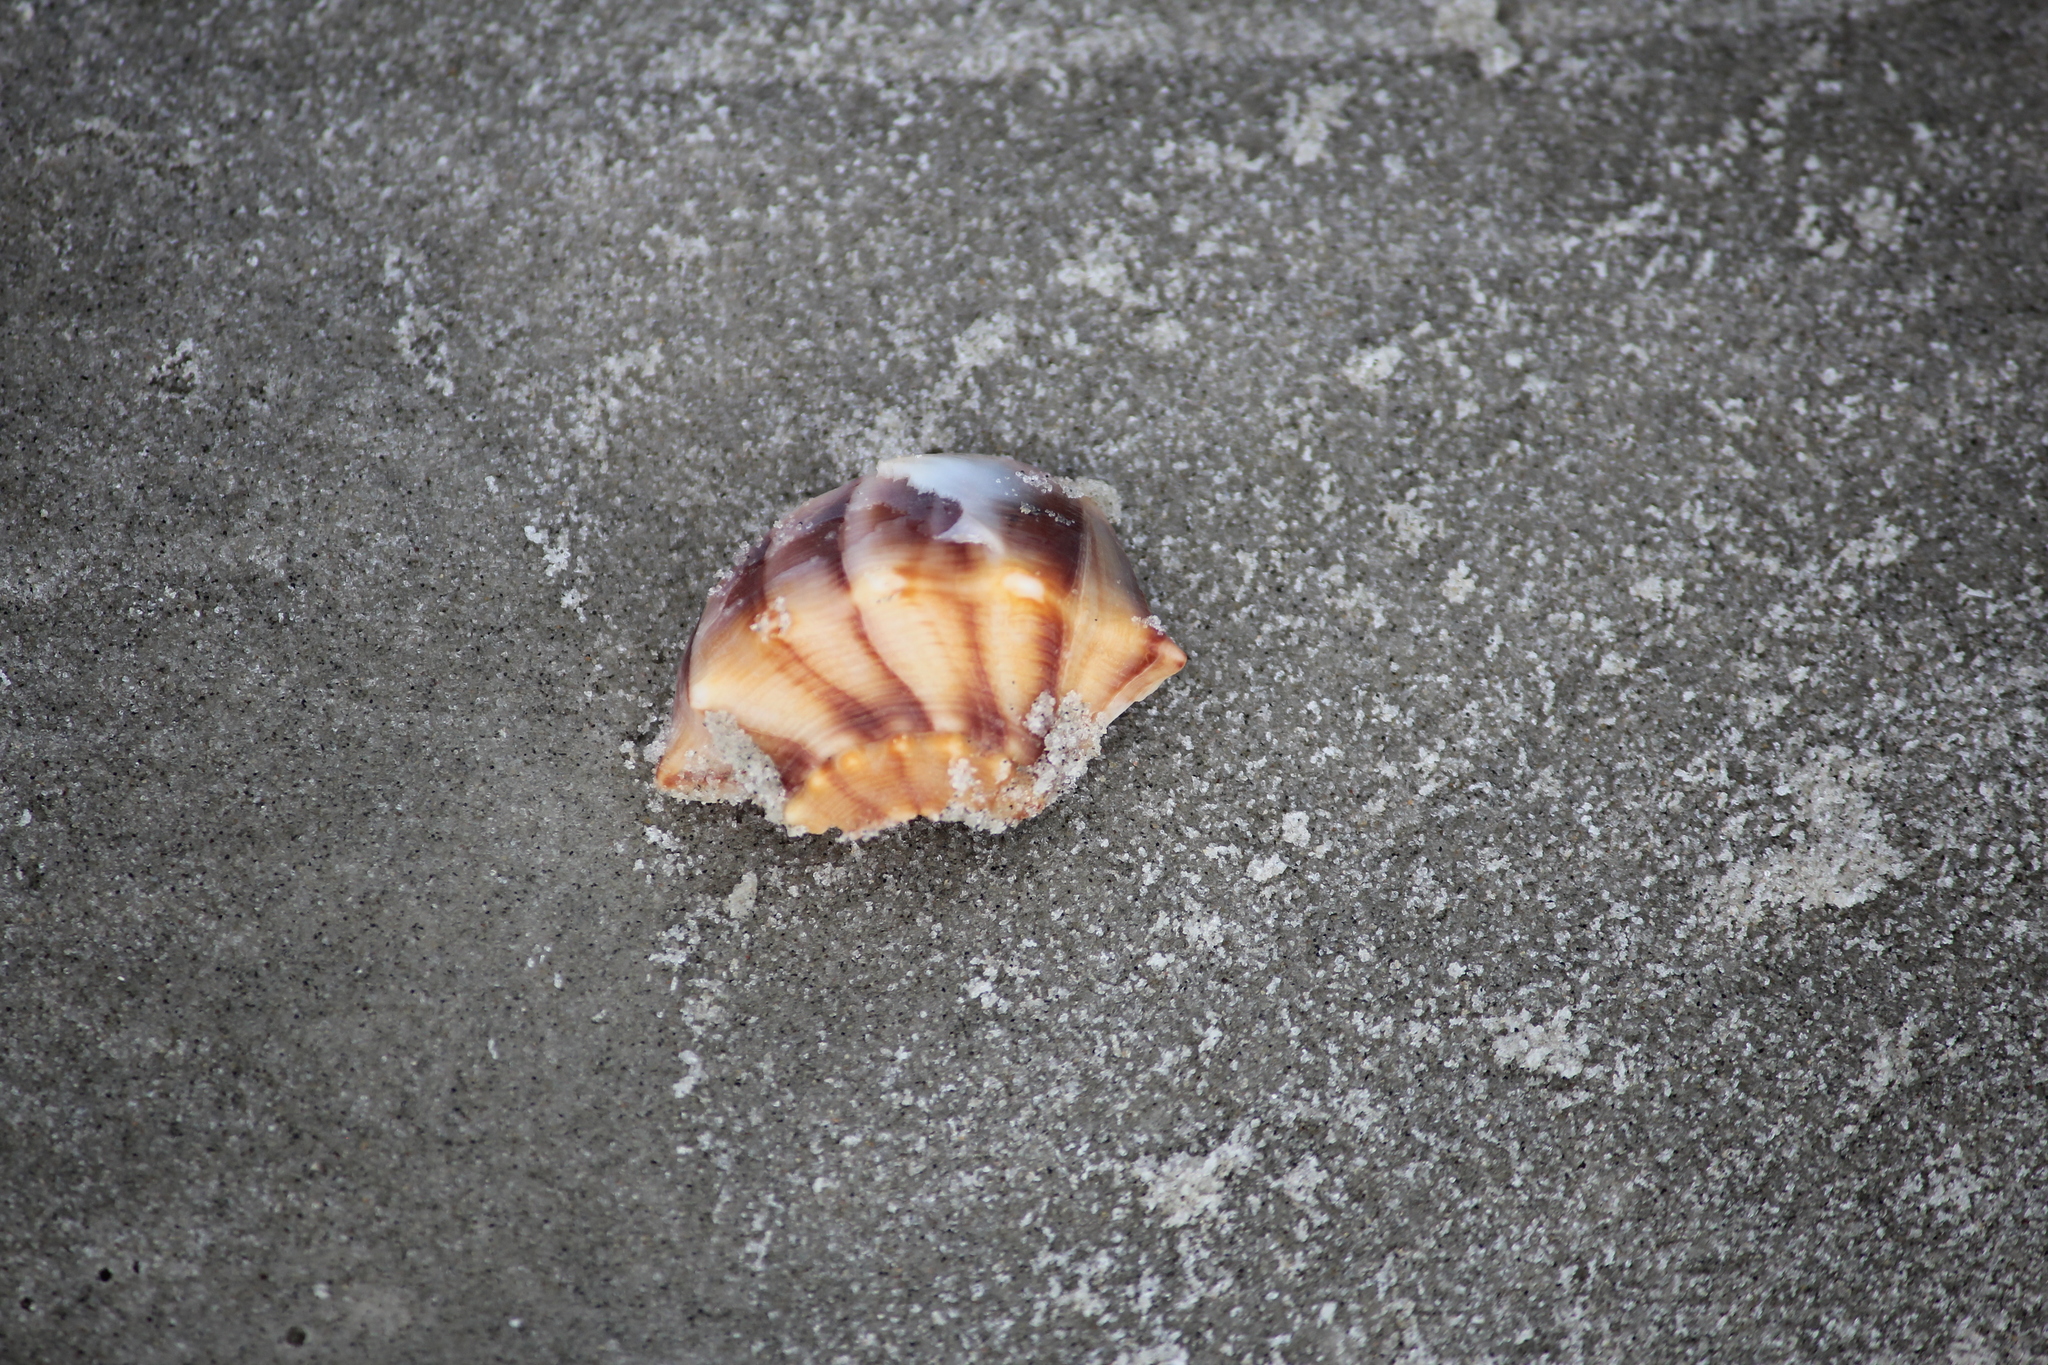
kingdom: Animalia
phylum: Mollusca
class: Gastropoda
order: Neogastropoda
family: Busyconidae
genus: Busycon
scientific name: Busycon carica
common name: Knobbed whelk
